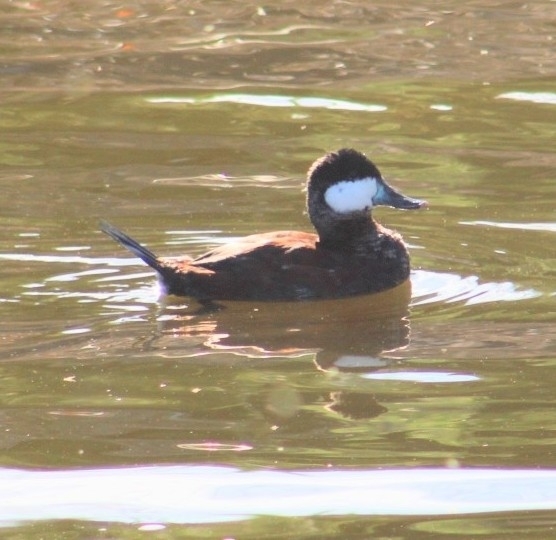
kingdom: Animalia
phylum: Chordata
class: Aves
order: Anseriformes
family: Anatidae
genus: Oxyura
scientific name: Oxyura jamaicensis
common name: Ruddy duck
